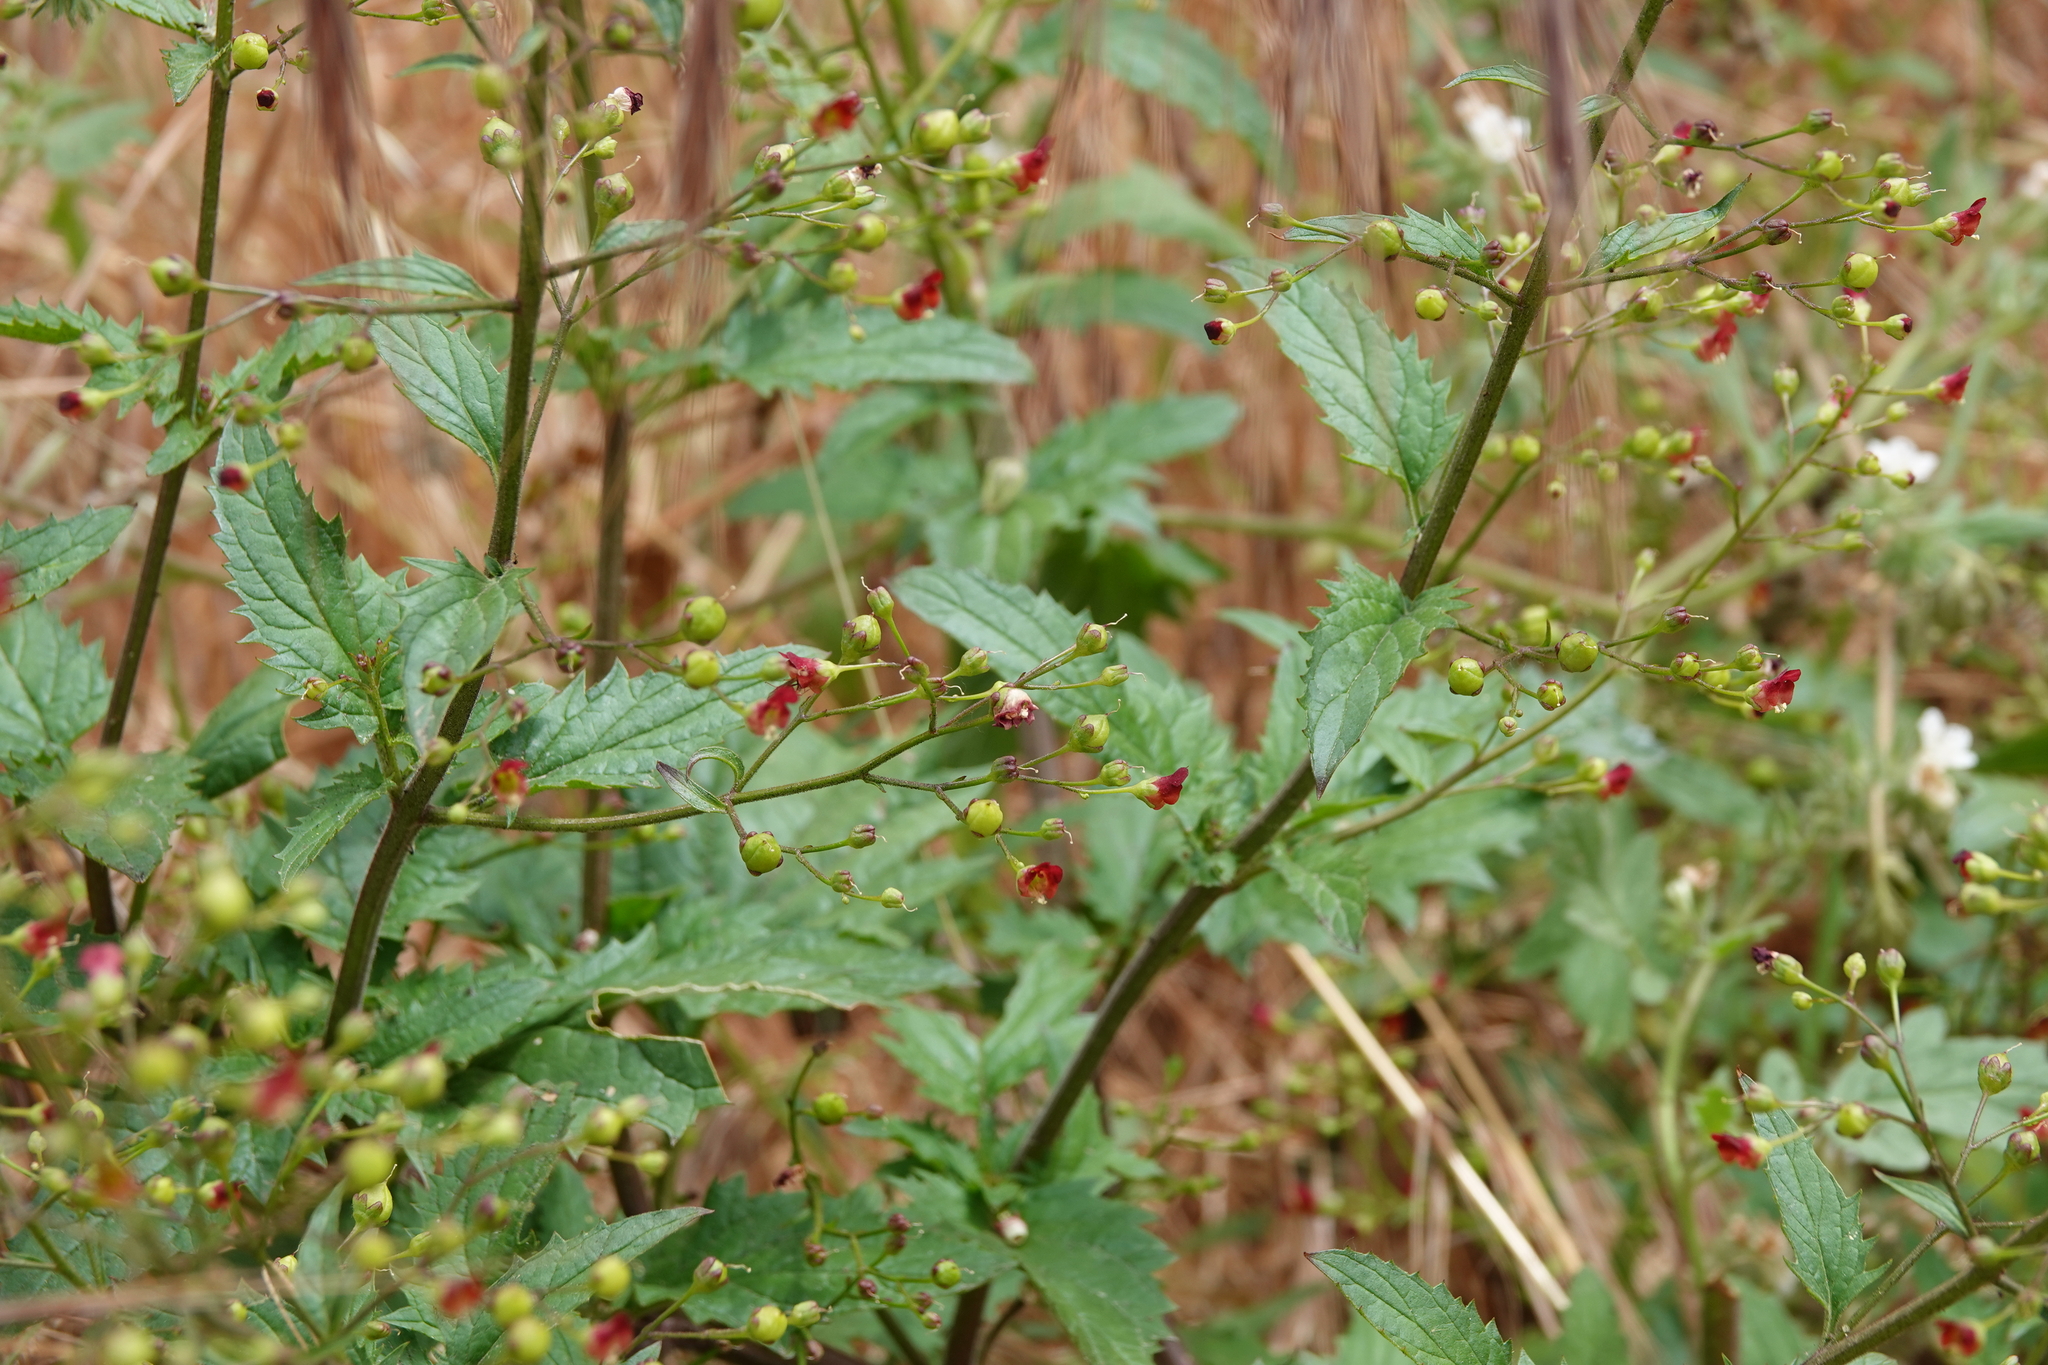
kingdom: Plantae
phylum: Tracheophyta
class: Magnoliopsida
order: Lamiales
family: Scrophulariaceae
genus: Scrophularia
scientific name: Scrophularia californica
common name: California figwort
